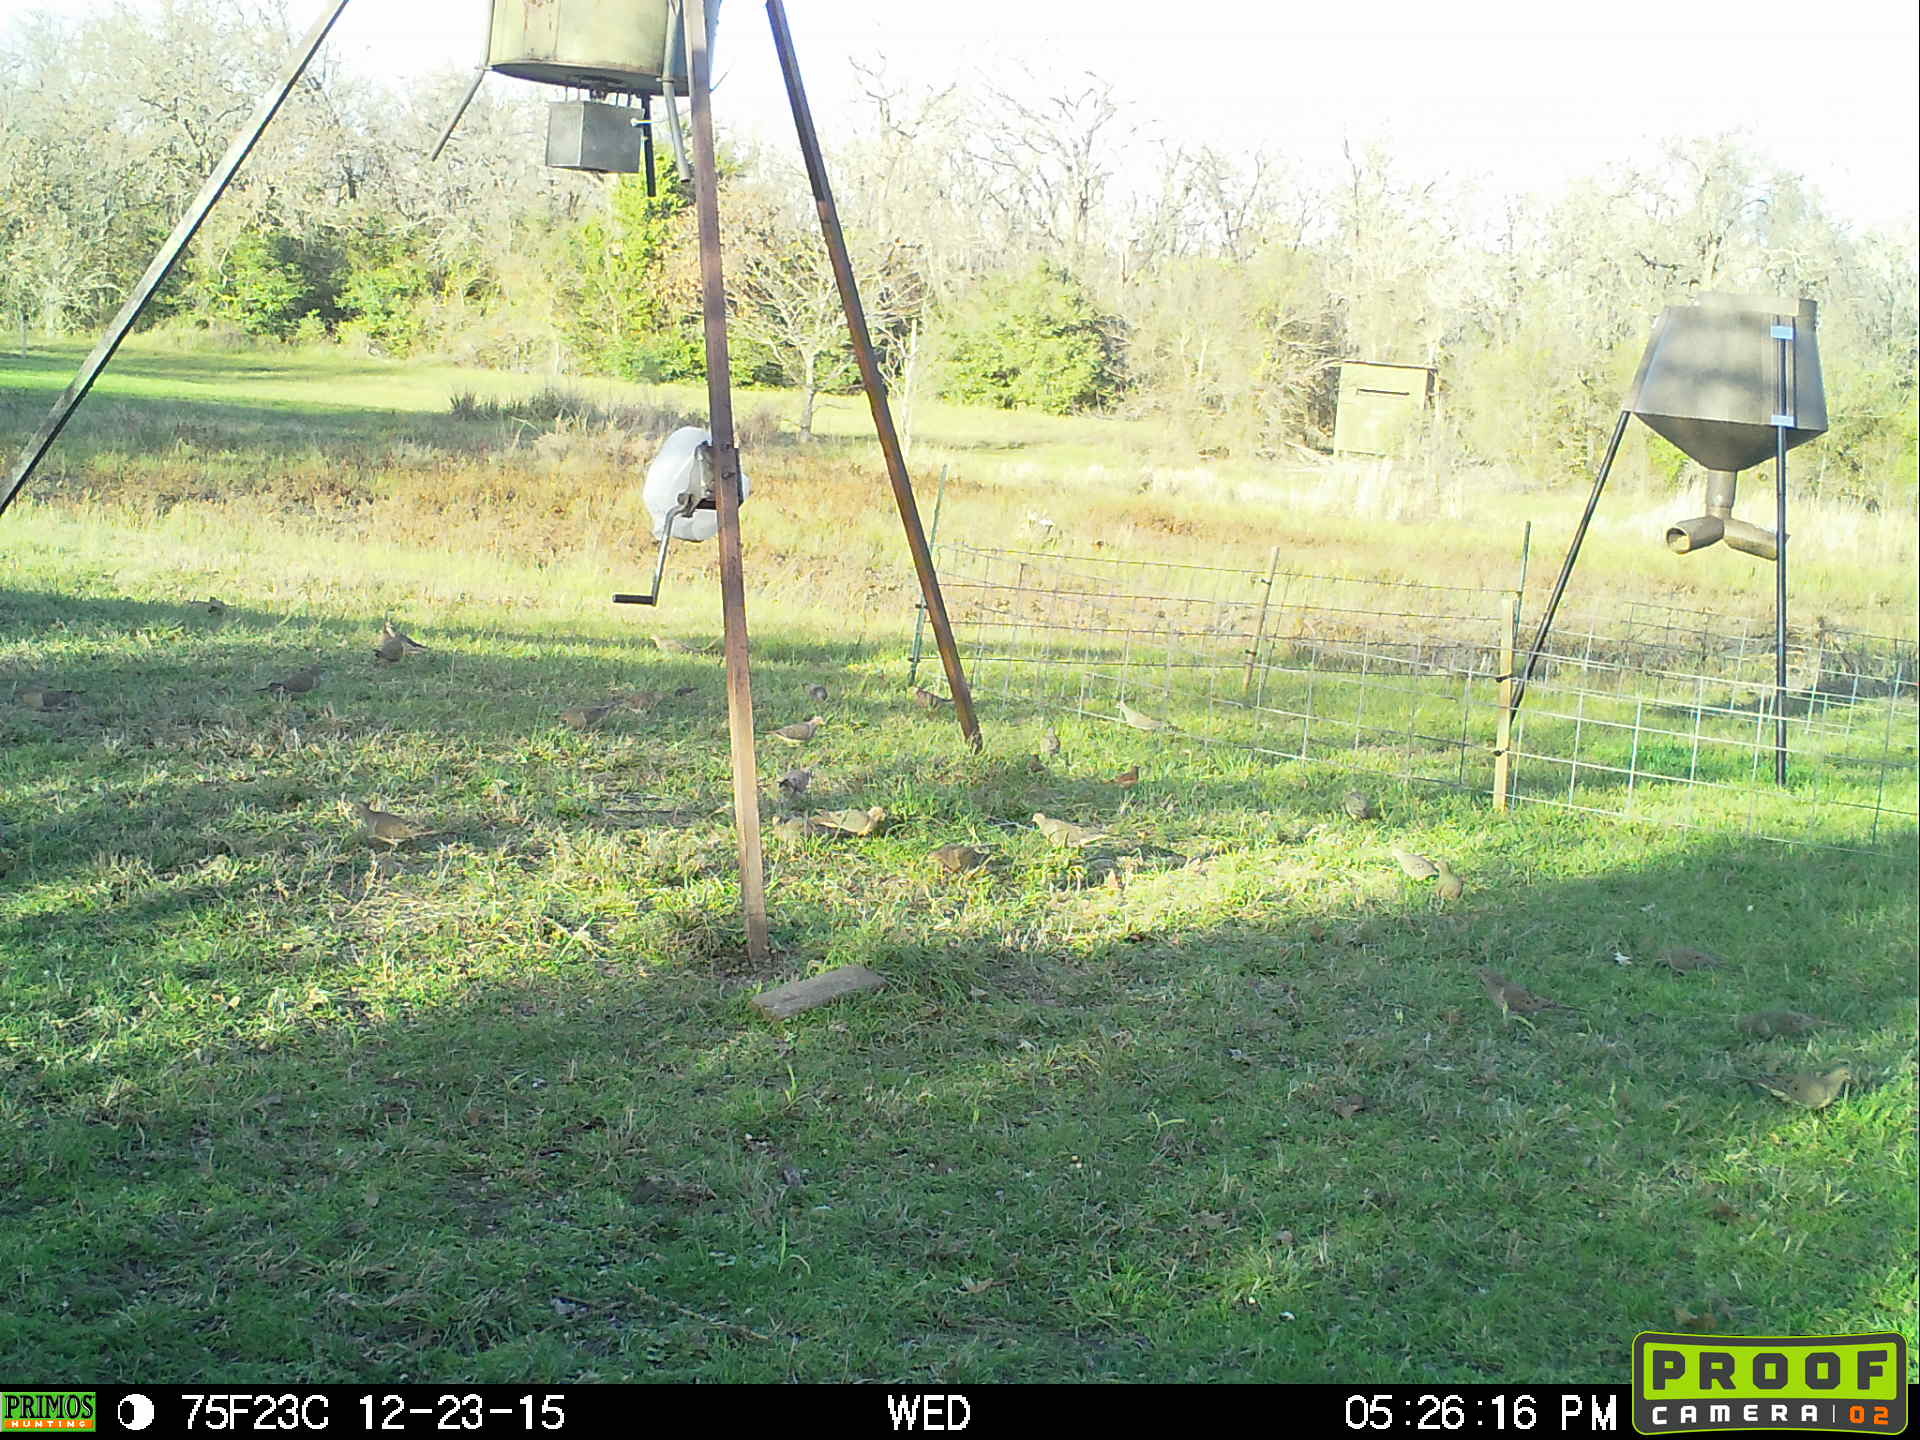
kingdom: Animalia
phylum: Chordata
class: Aves
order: Columbiformes
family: Columbidae
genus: Zenaida
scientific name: Zenaida macroura
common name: Mourning dove
